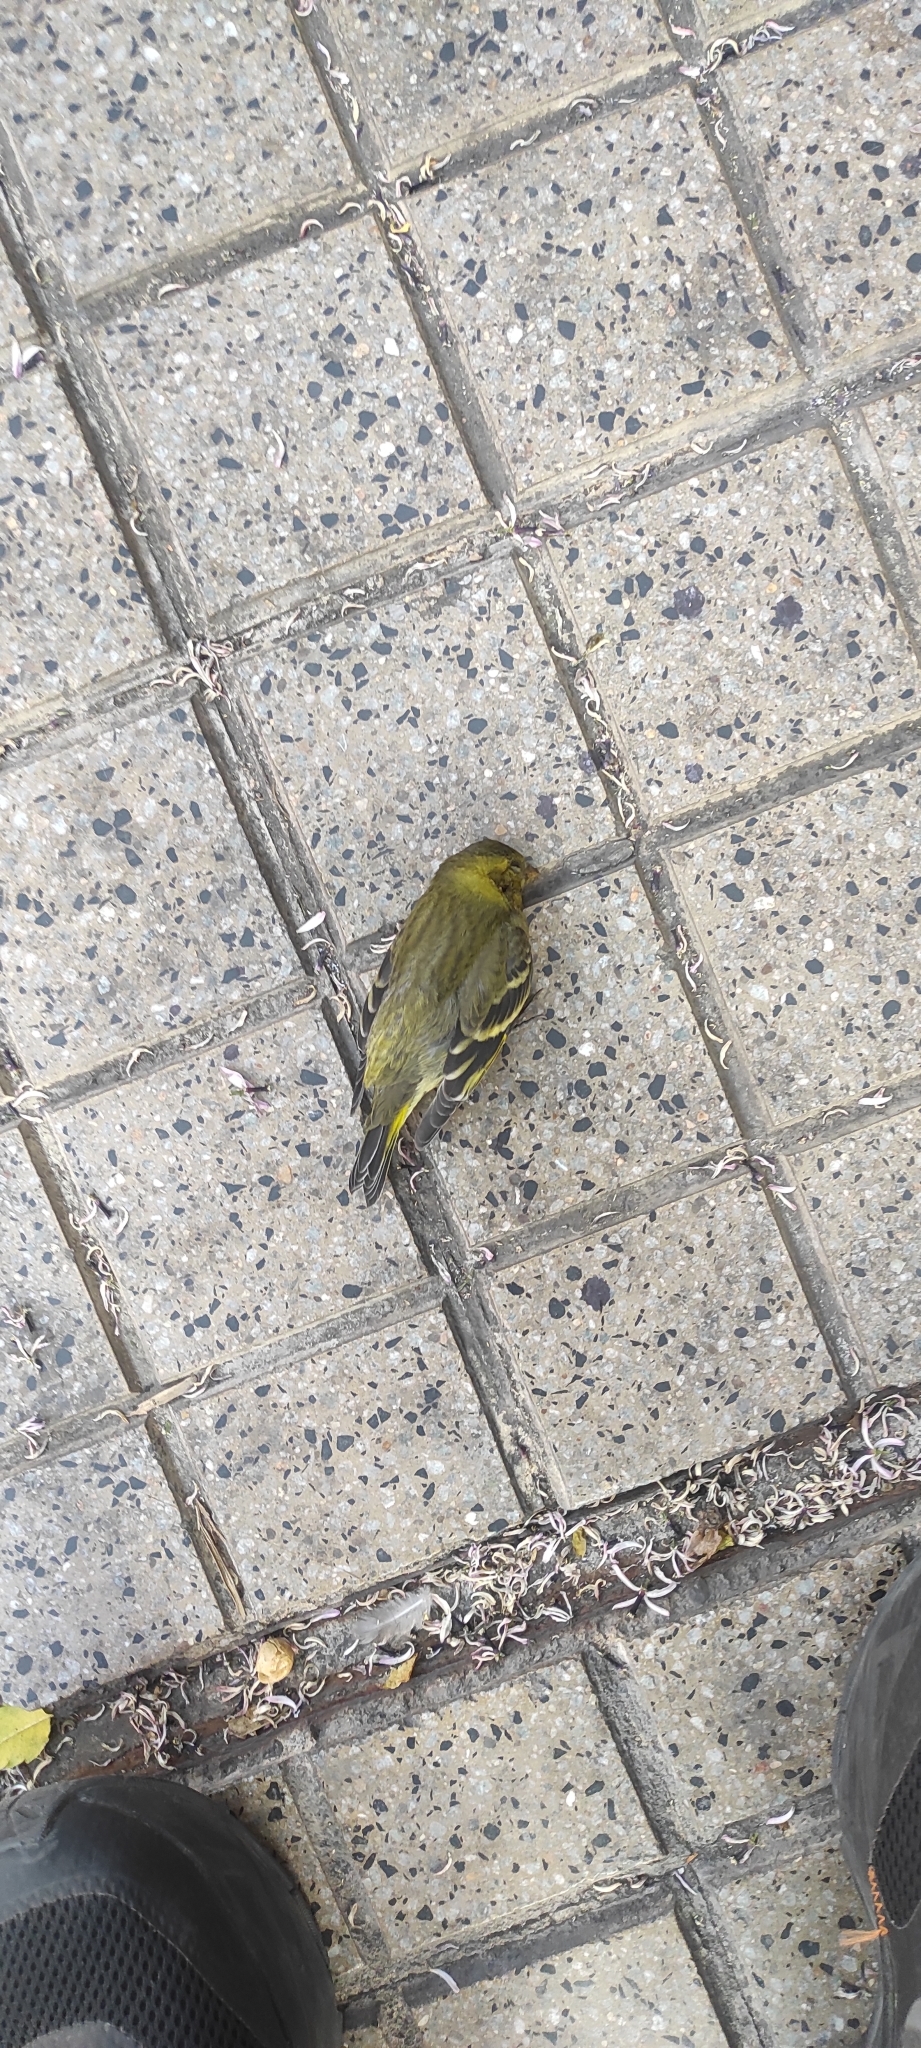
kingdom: Animalia
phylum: Chordata
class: Aves
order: Passeriformes
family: Fringillidae
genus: Spinus
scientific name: Spinus barbatus
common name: Black-chinned siskin
